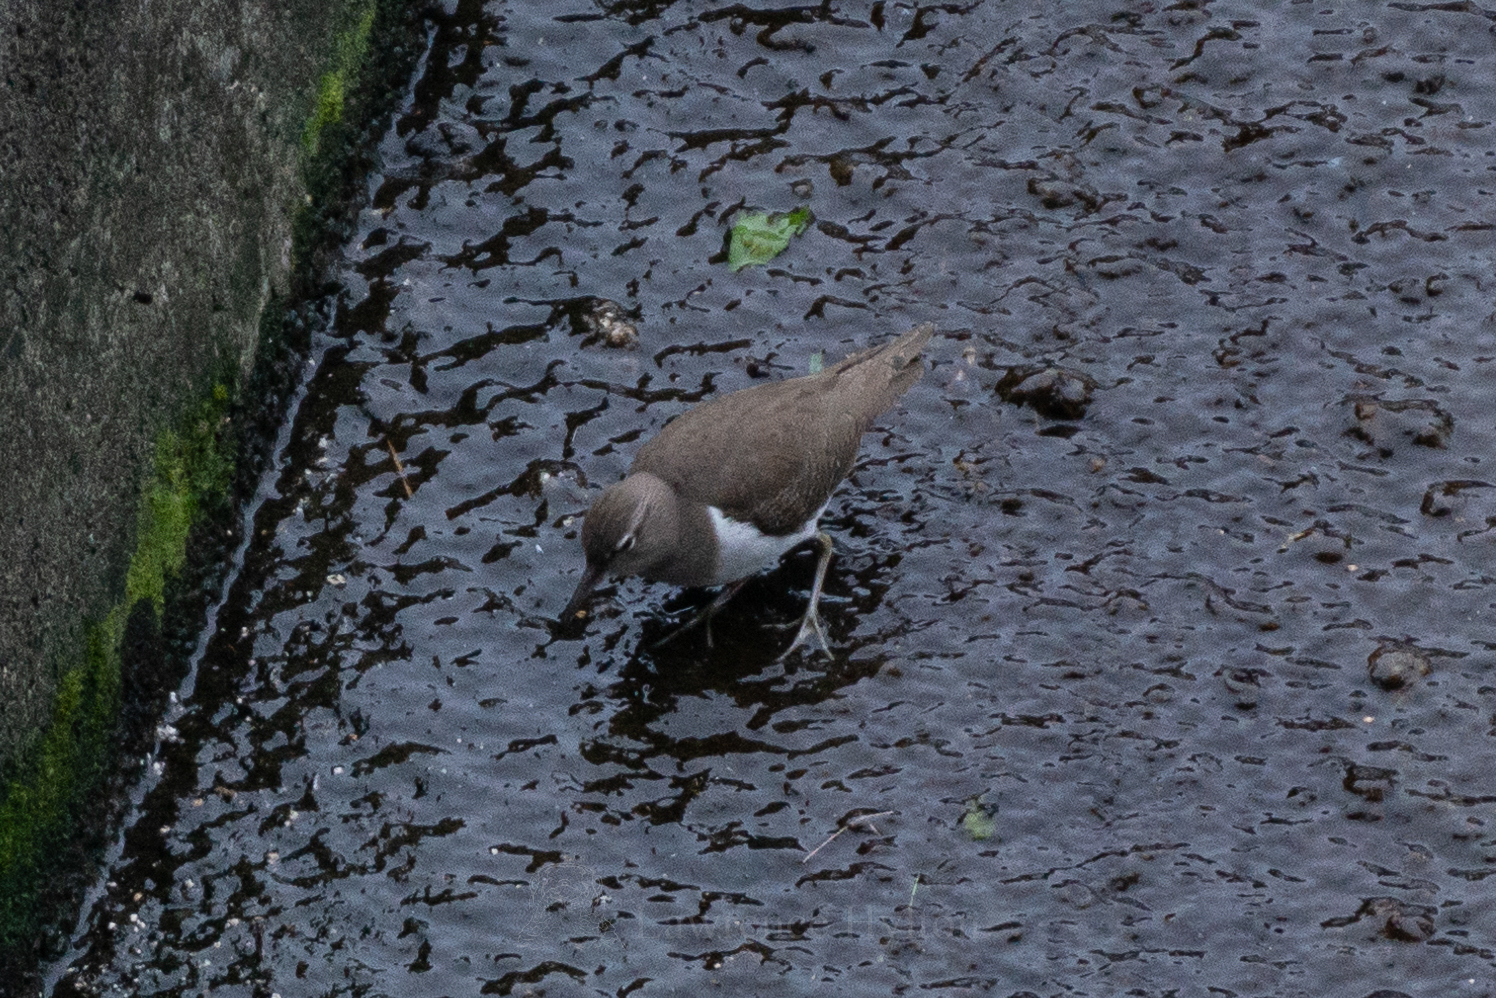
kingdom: Animalia
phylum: Chordata
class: Aves
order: Charadriiformes
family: Scolopacidae
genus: Actitis
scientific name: Actitis hypoleucos
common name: Common sandpiper
